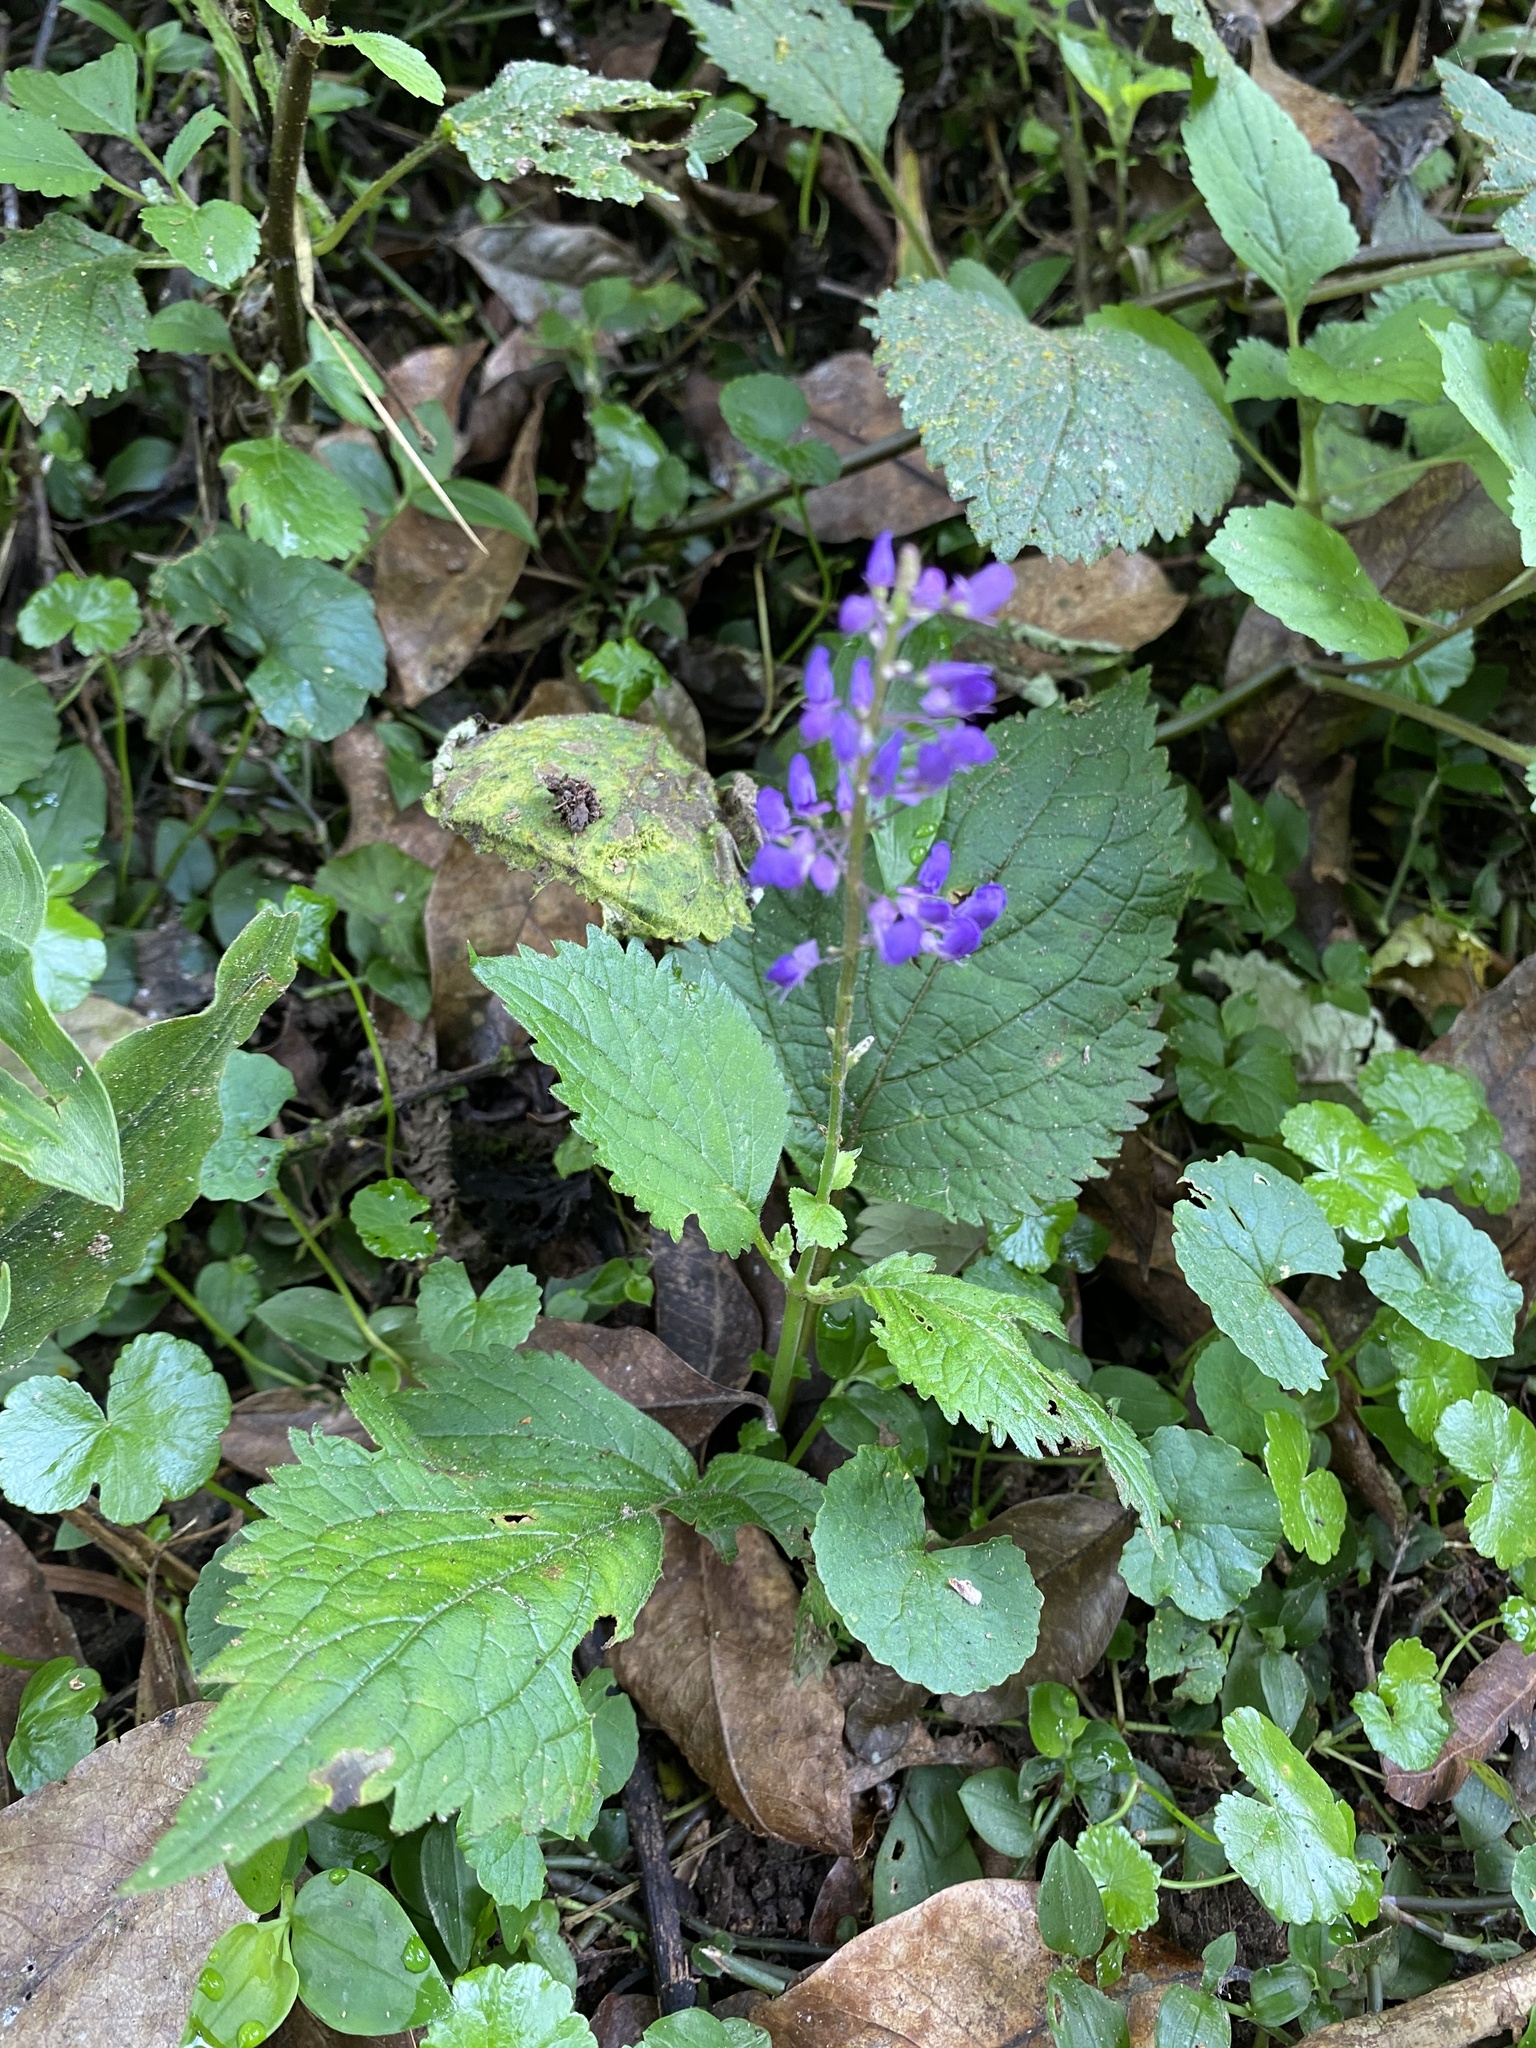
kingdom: Plantae
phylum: Tracheophyta
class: Magnoliopsida
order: Lamiales
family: Lamiaceae
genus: Coleus
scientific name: Coleus dolichopodus
